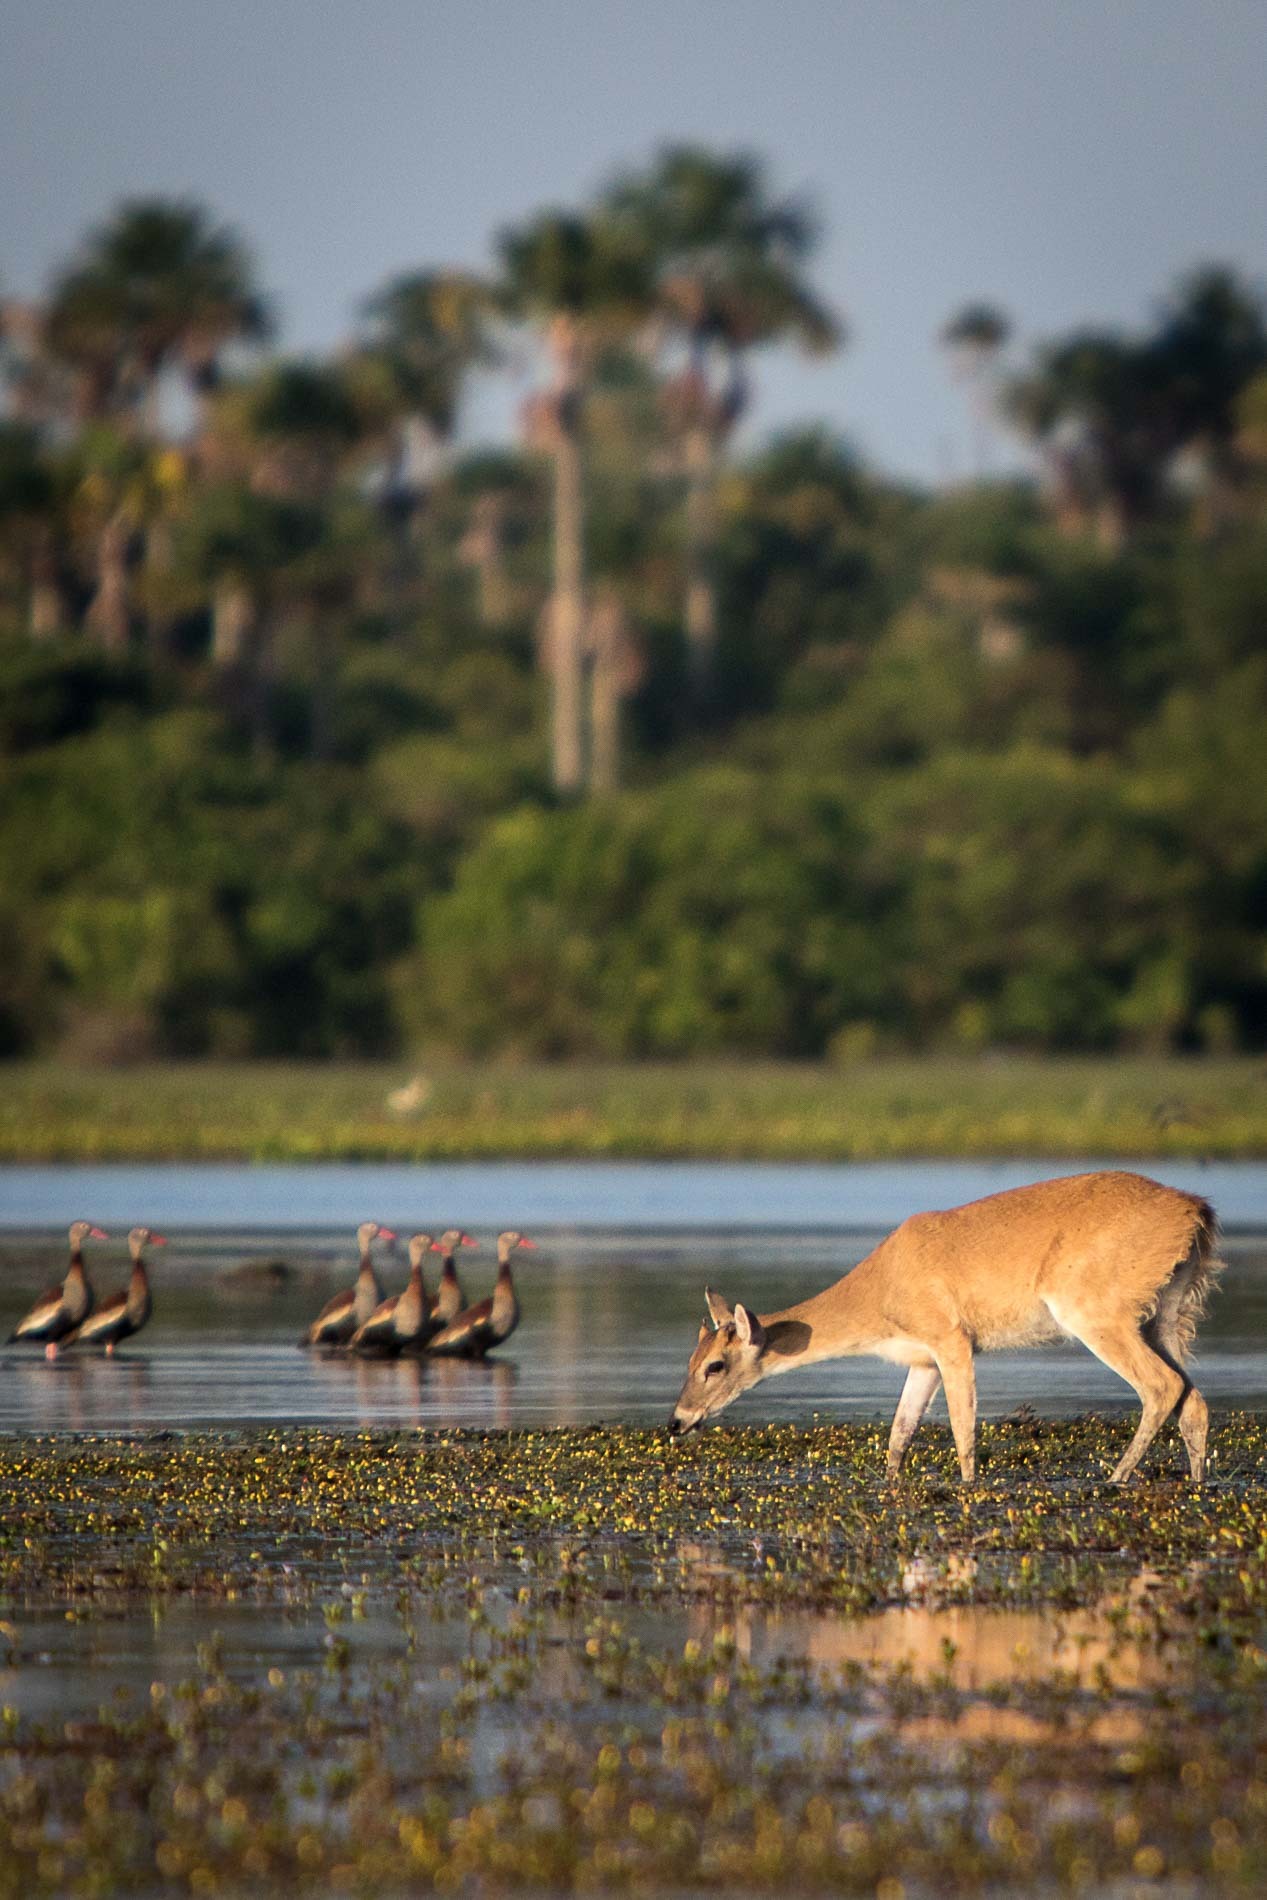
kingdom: Animalia
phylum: Chordata
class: Mammalia
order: Artiodactyla
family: Cervidae
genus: Odocoileus
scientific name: Odocoileus virginianus
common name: White-tailed deer
